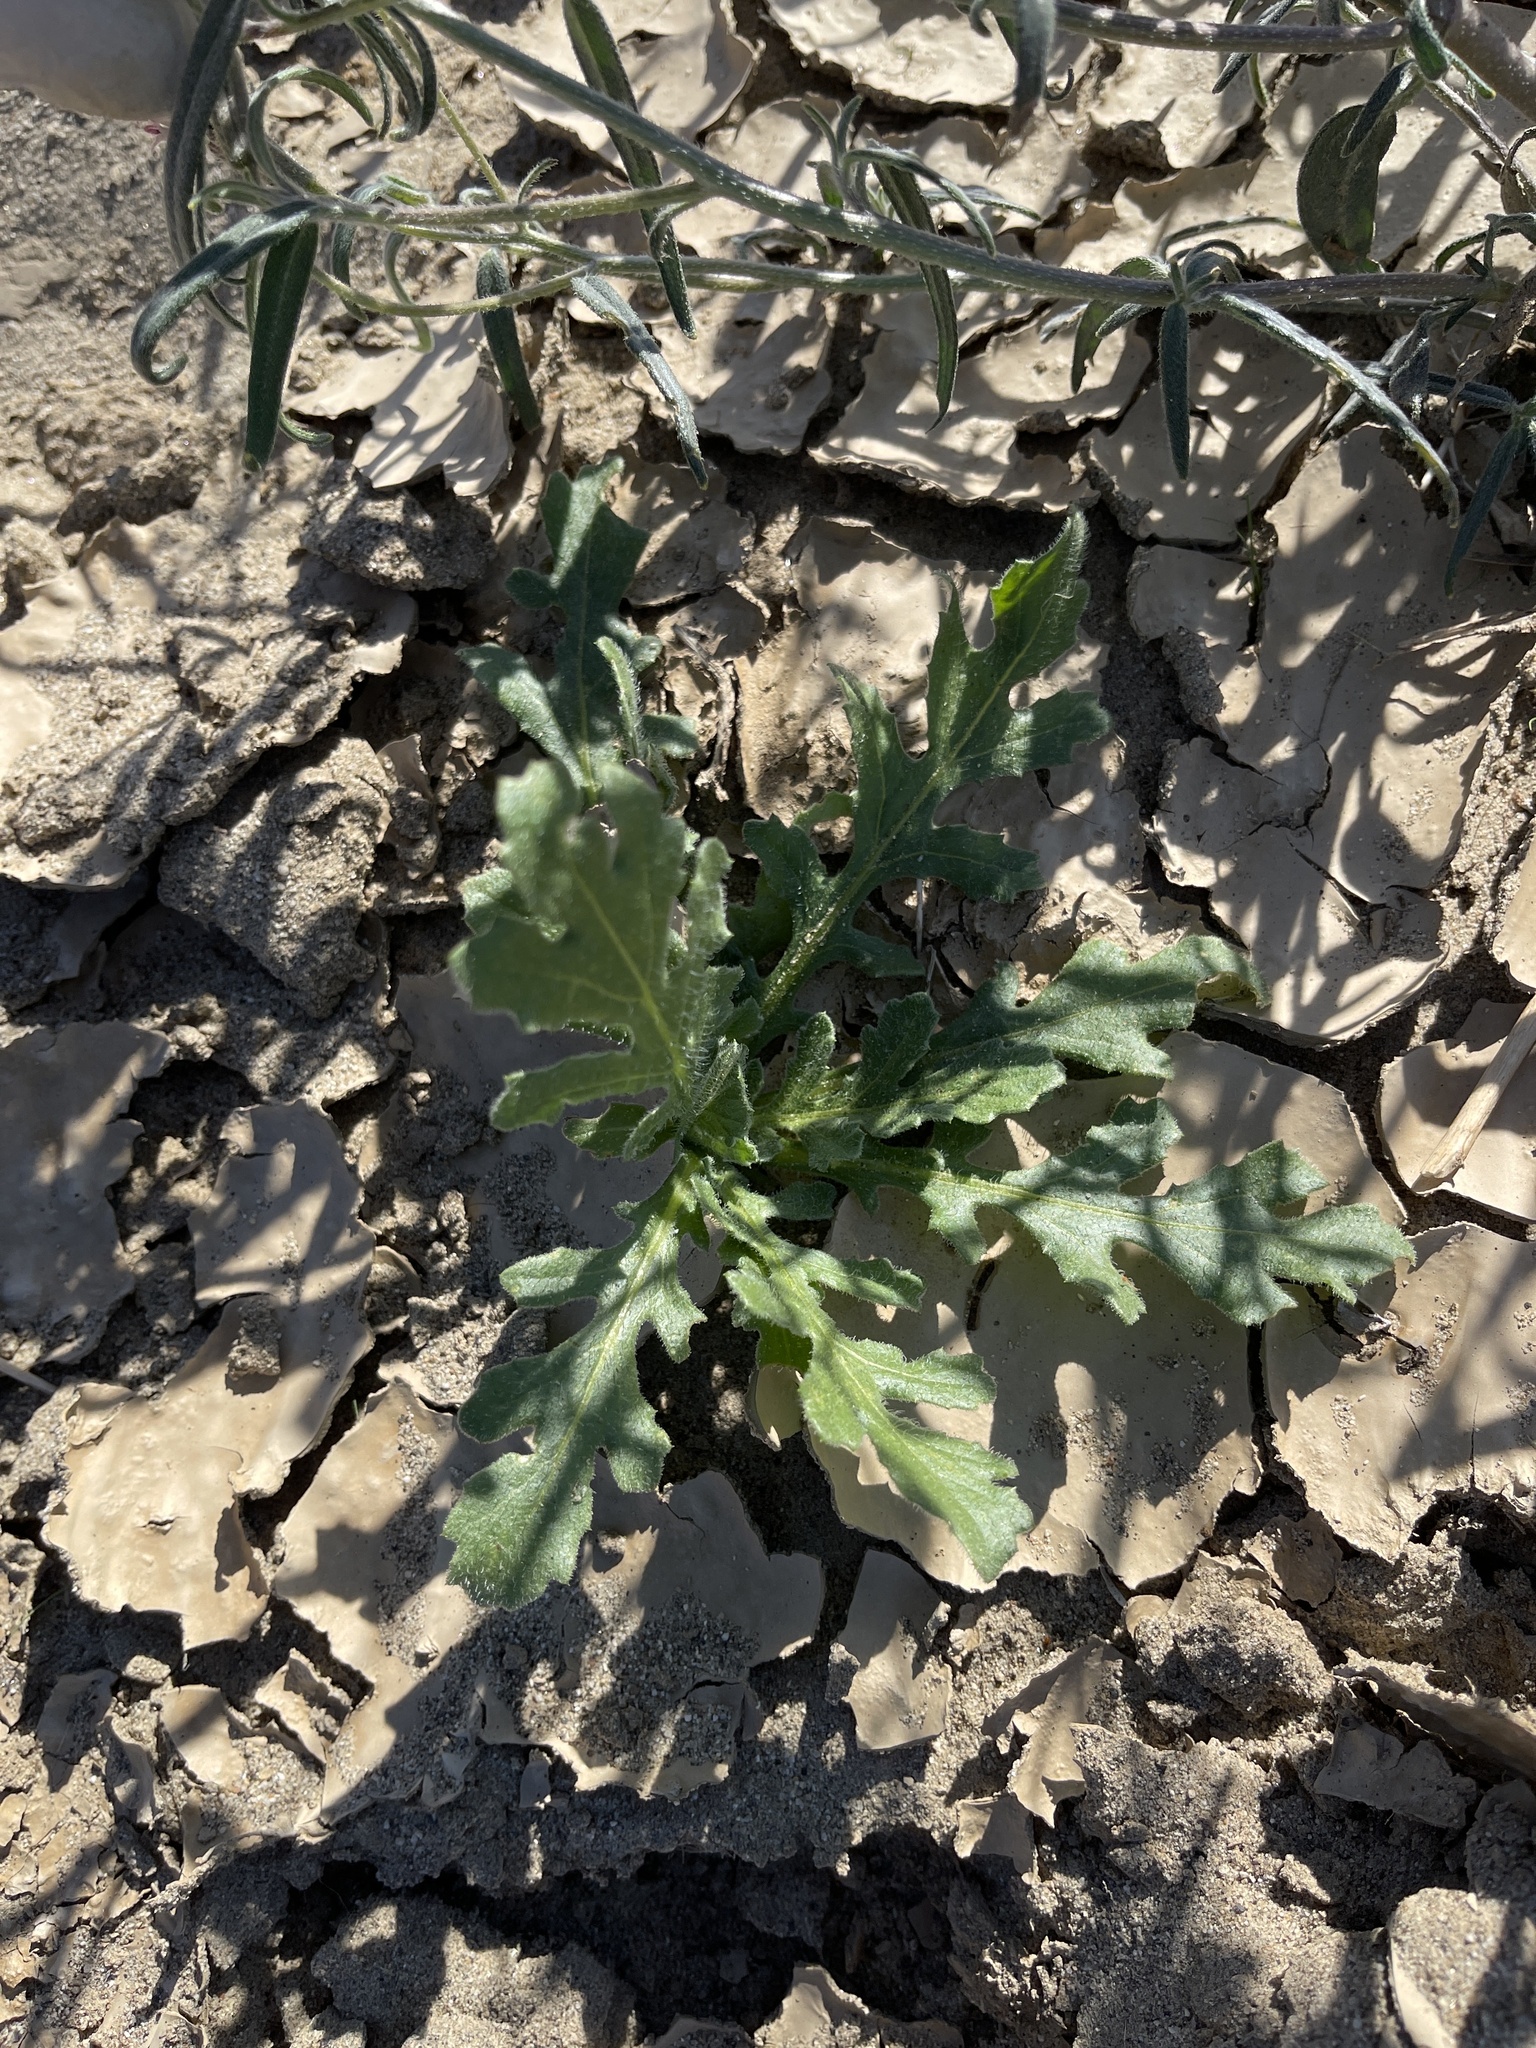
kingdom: Plantae
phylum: Tracheophyta
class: Magnoliopsida
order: Asterales
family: Asteraceae
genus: Volutaria
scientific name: Volutaria tubuliflora
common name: Desert knapweed
